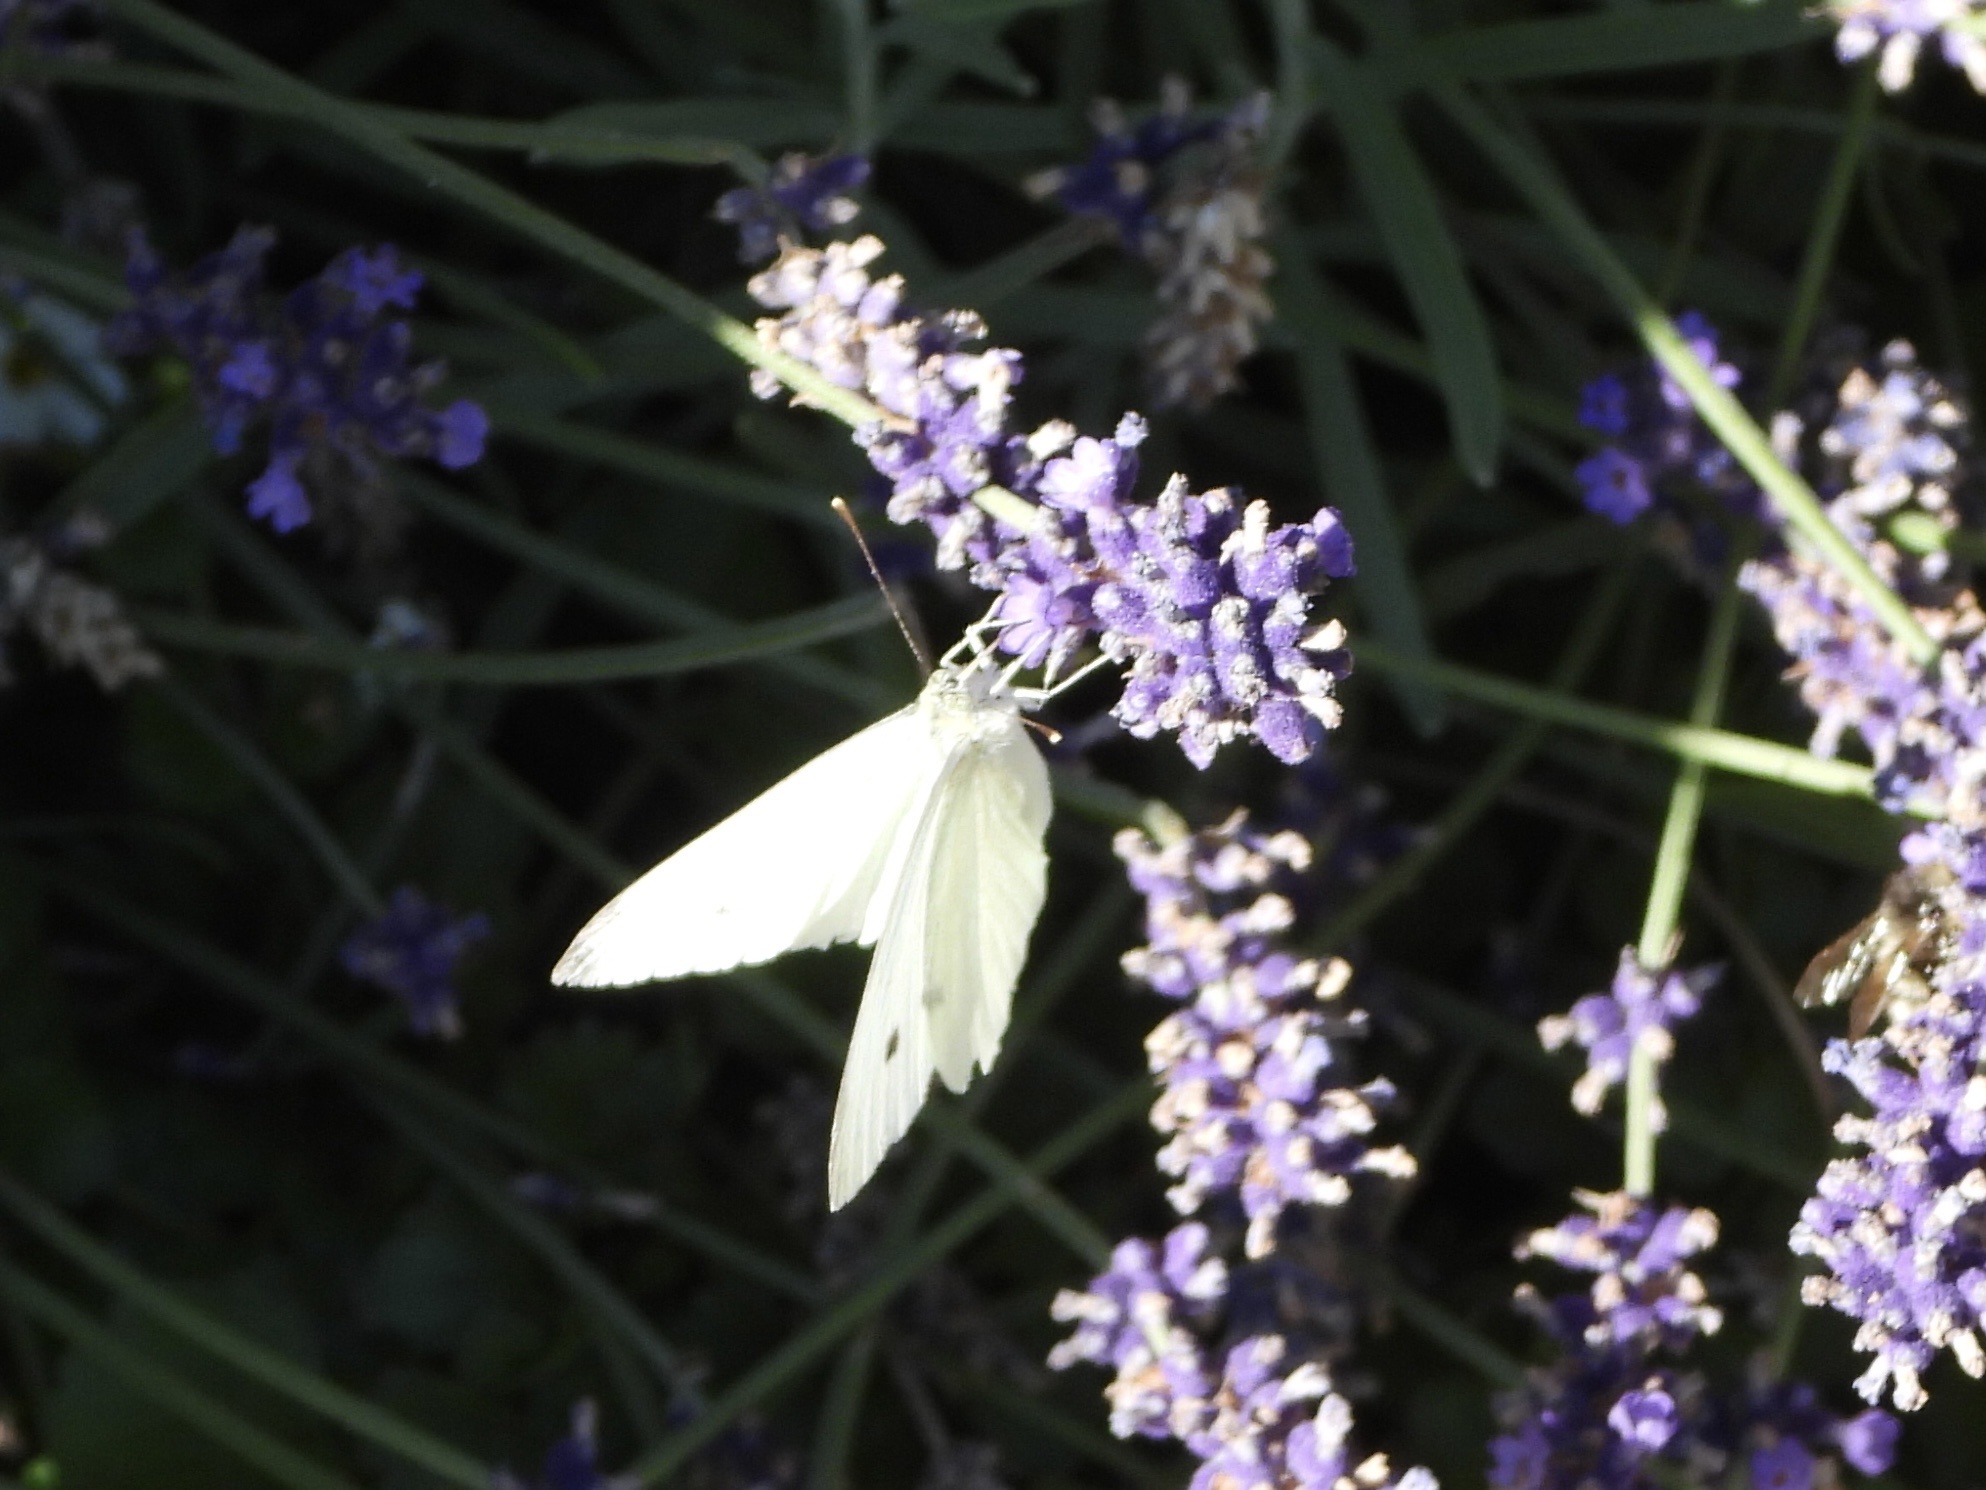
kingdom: Animalia
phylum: Arthropoda
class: Insecta
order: Lepidoptera
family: Pieridae
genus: Pieris
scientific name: Pieris rapae
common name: Small white
